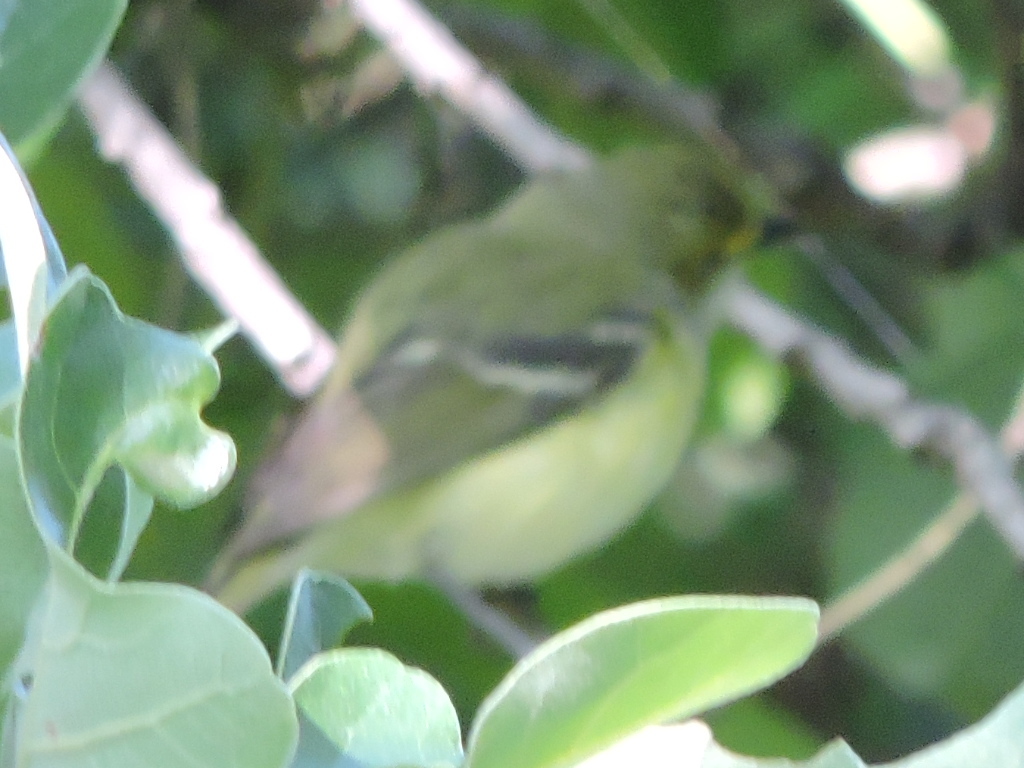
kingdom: Animalia
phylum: Chordata
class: Aves
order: Passeriformes
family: Vireonidae
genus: Vireo
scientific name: Vireo griseus
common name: White-eyed vireo
